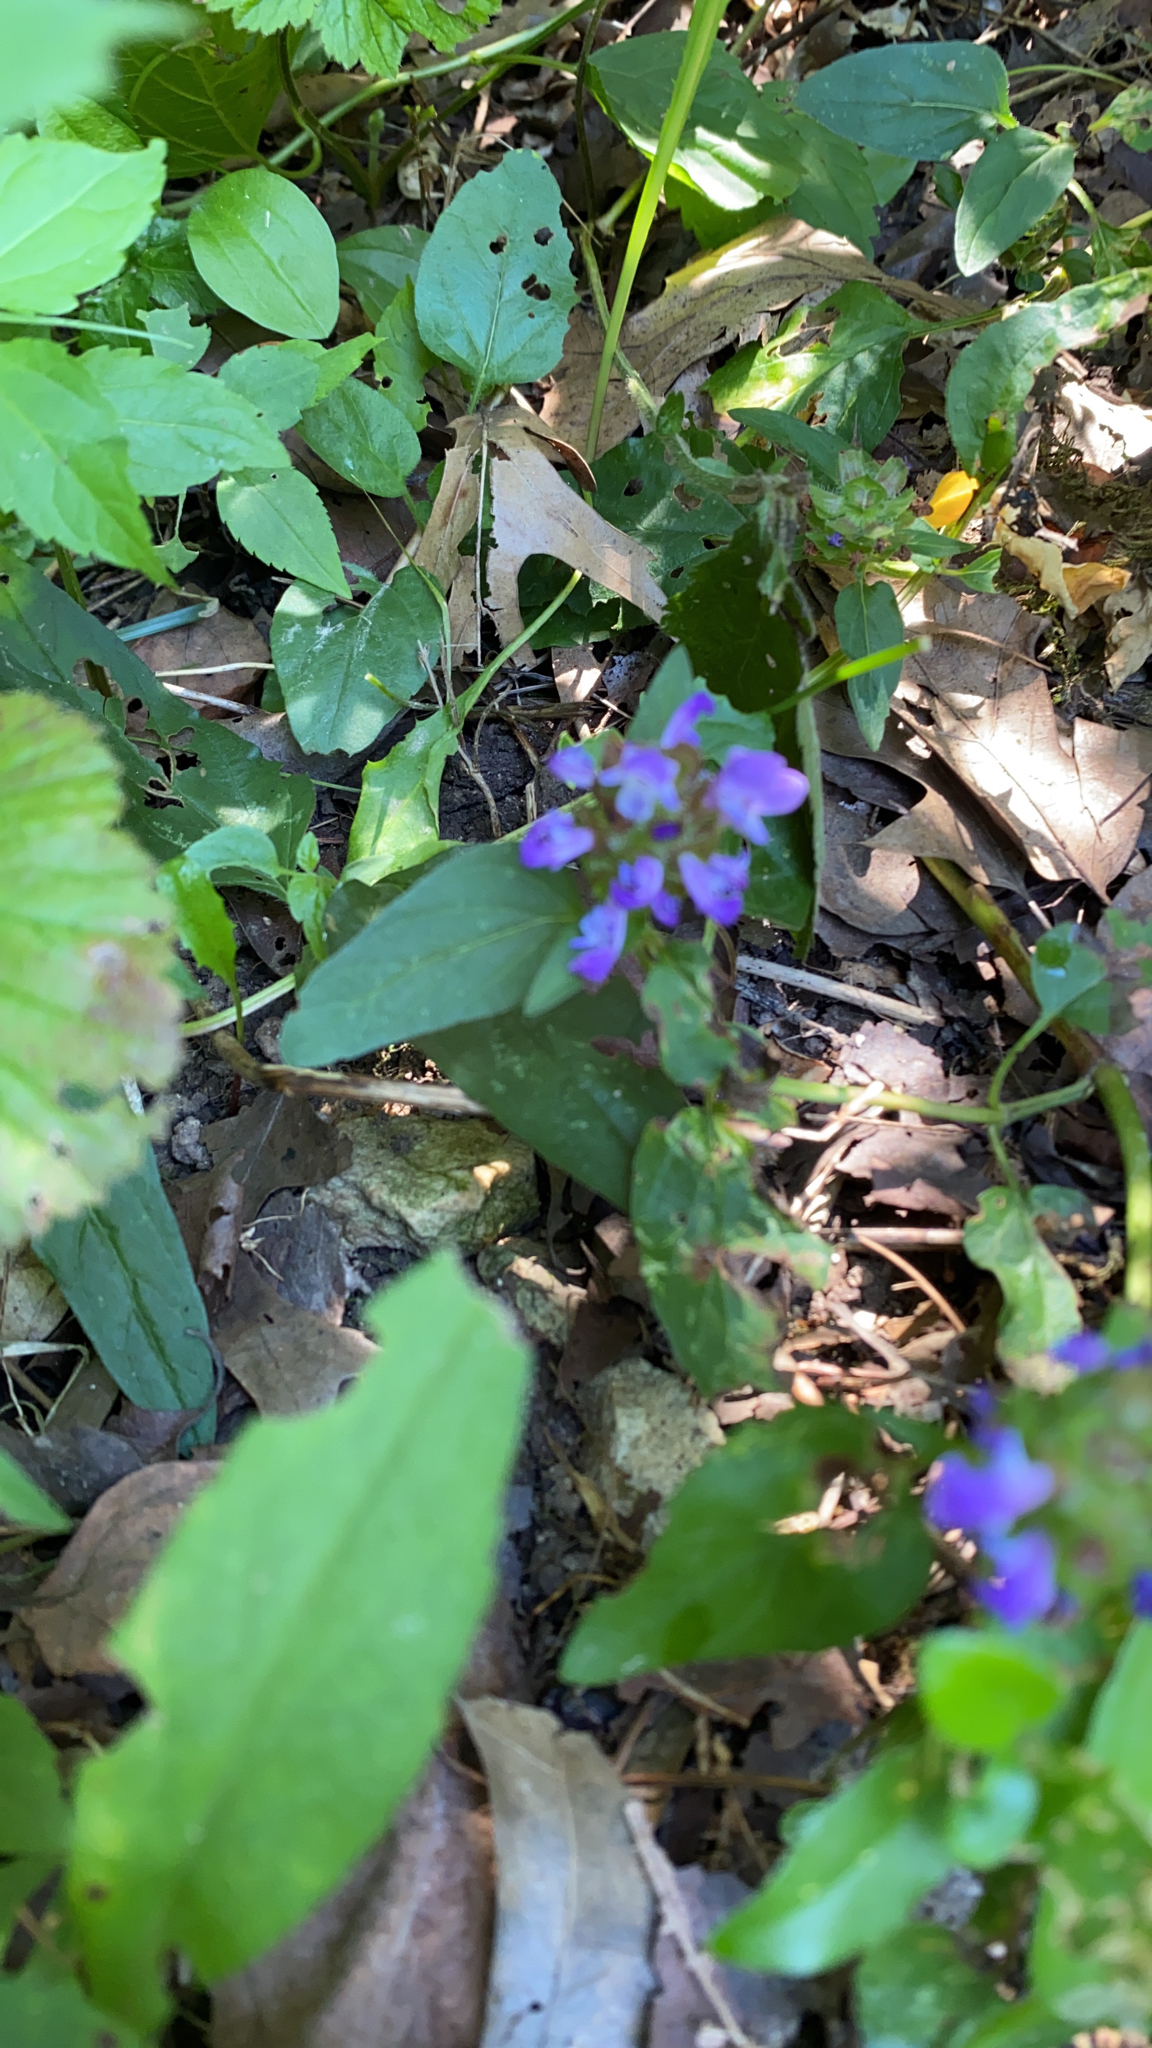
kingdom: Plantae
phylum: Tracheophyta
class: Magnoliopsida
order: Lamiales
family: Lamiaceae
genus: Prunella
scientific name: Prunella vulgaris
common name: Heal-all
